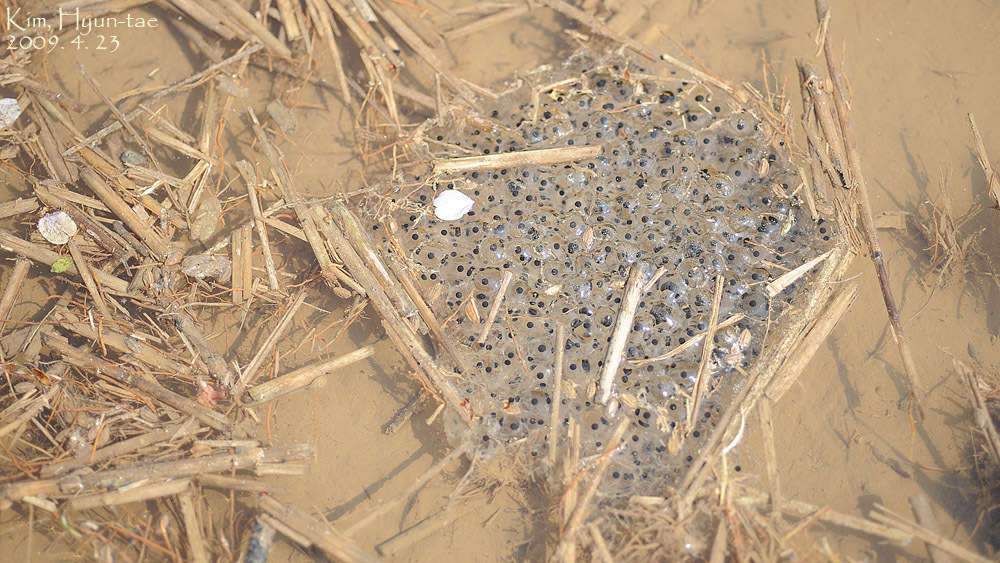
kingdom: Animalia
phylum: Chordata
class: Amphibia
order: Anura
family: Ranidae
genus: Rana
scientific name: Rana uenoi
